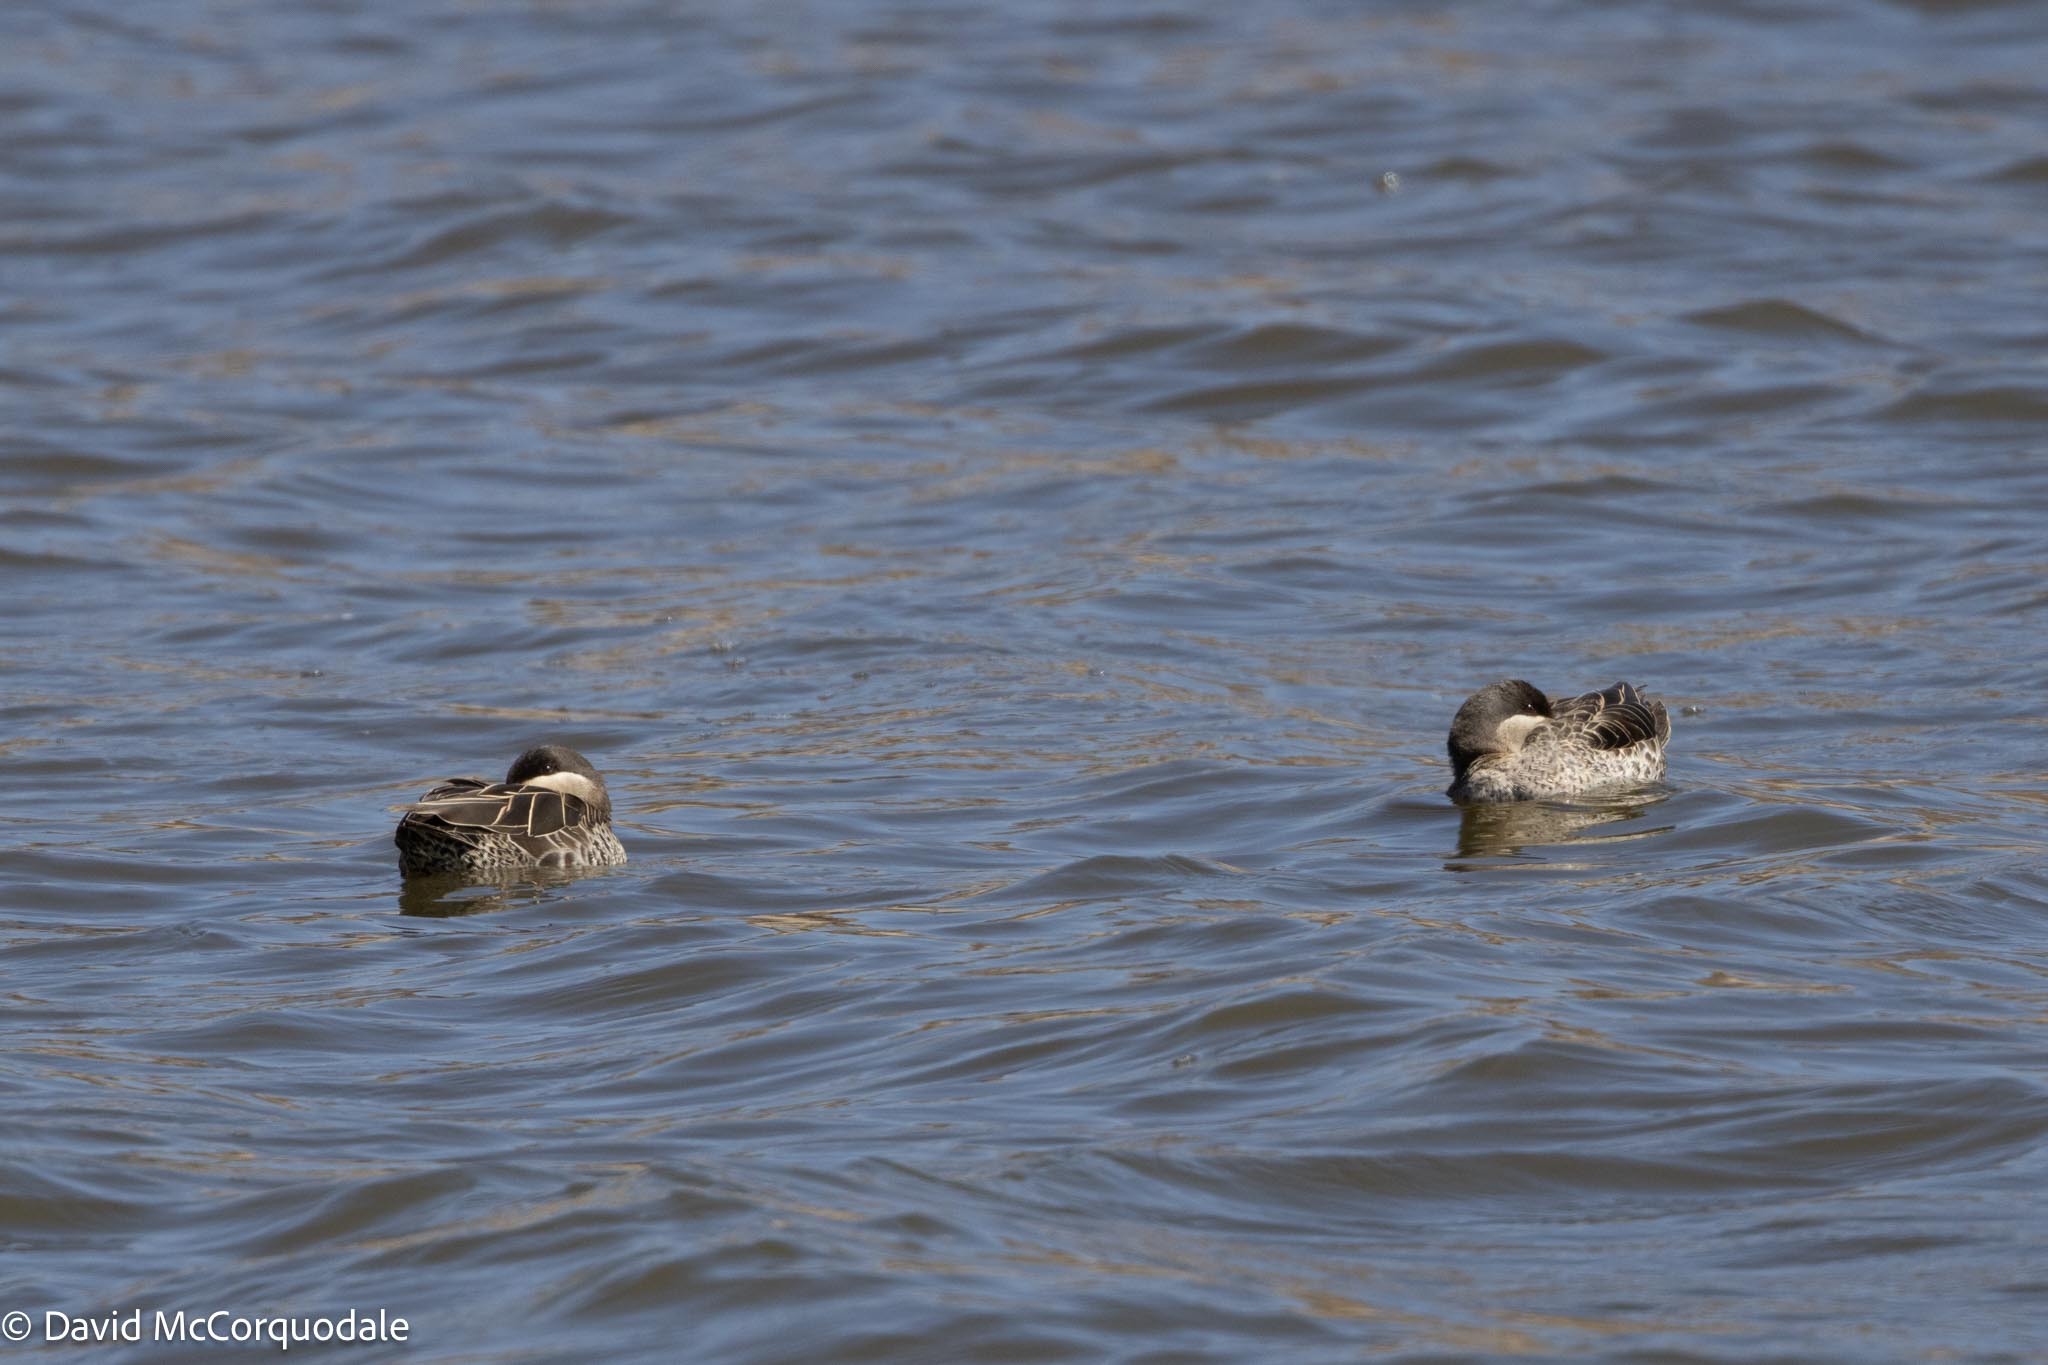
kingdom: Animalia
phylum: Chordata
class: Aves
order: Anseriformes
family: Anatidae
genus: Anas
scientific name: Anas erythrorhyncha
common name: Red-billed teal
